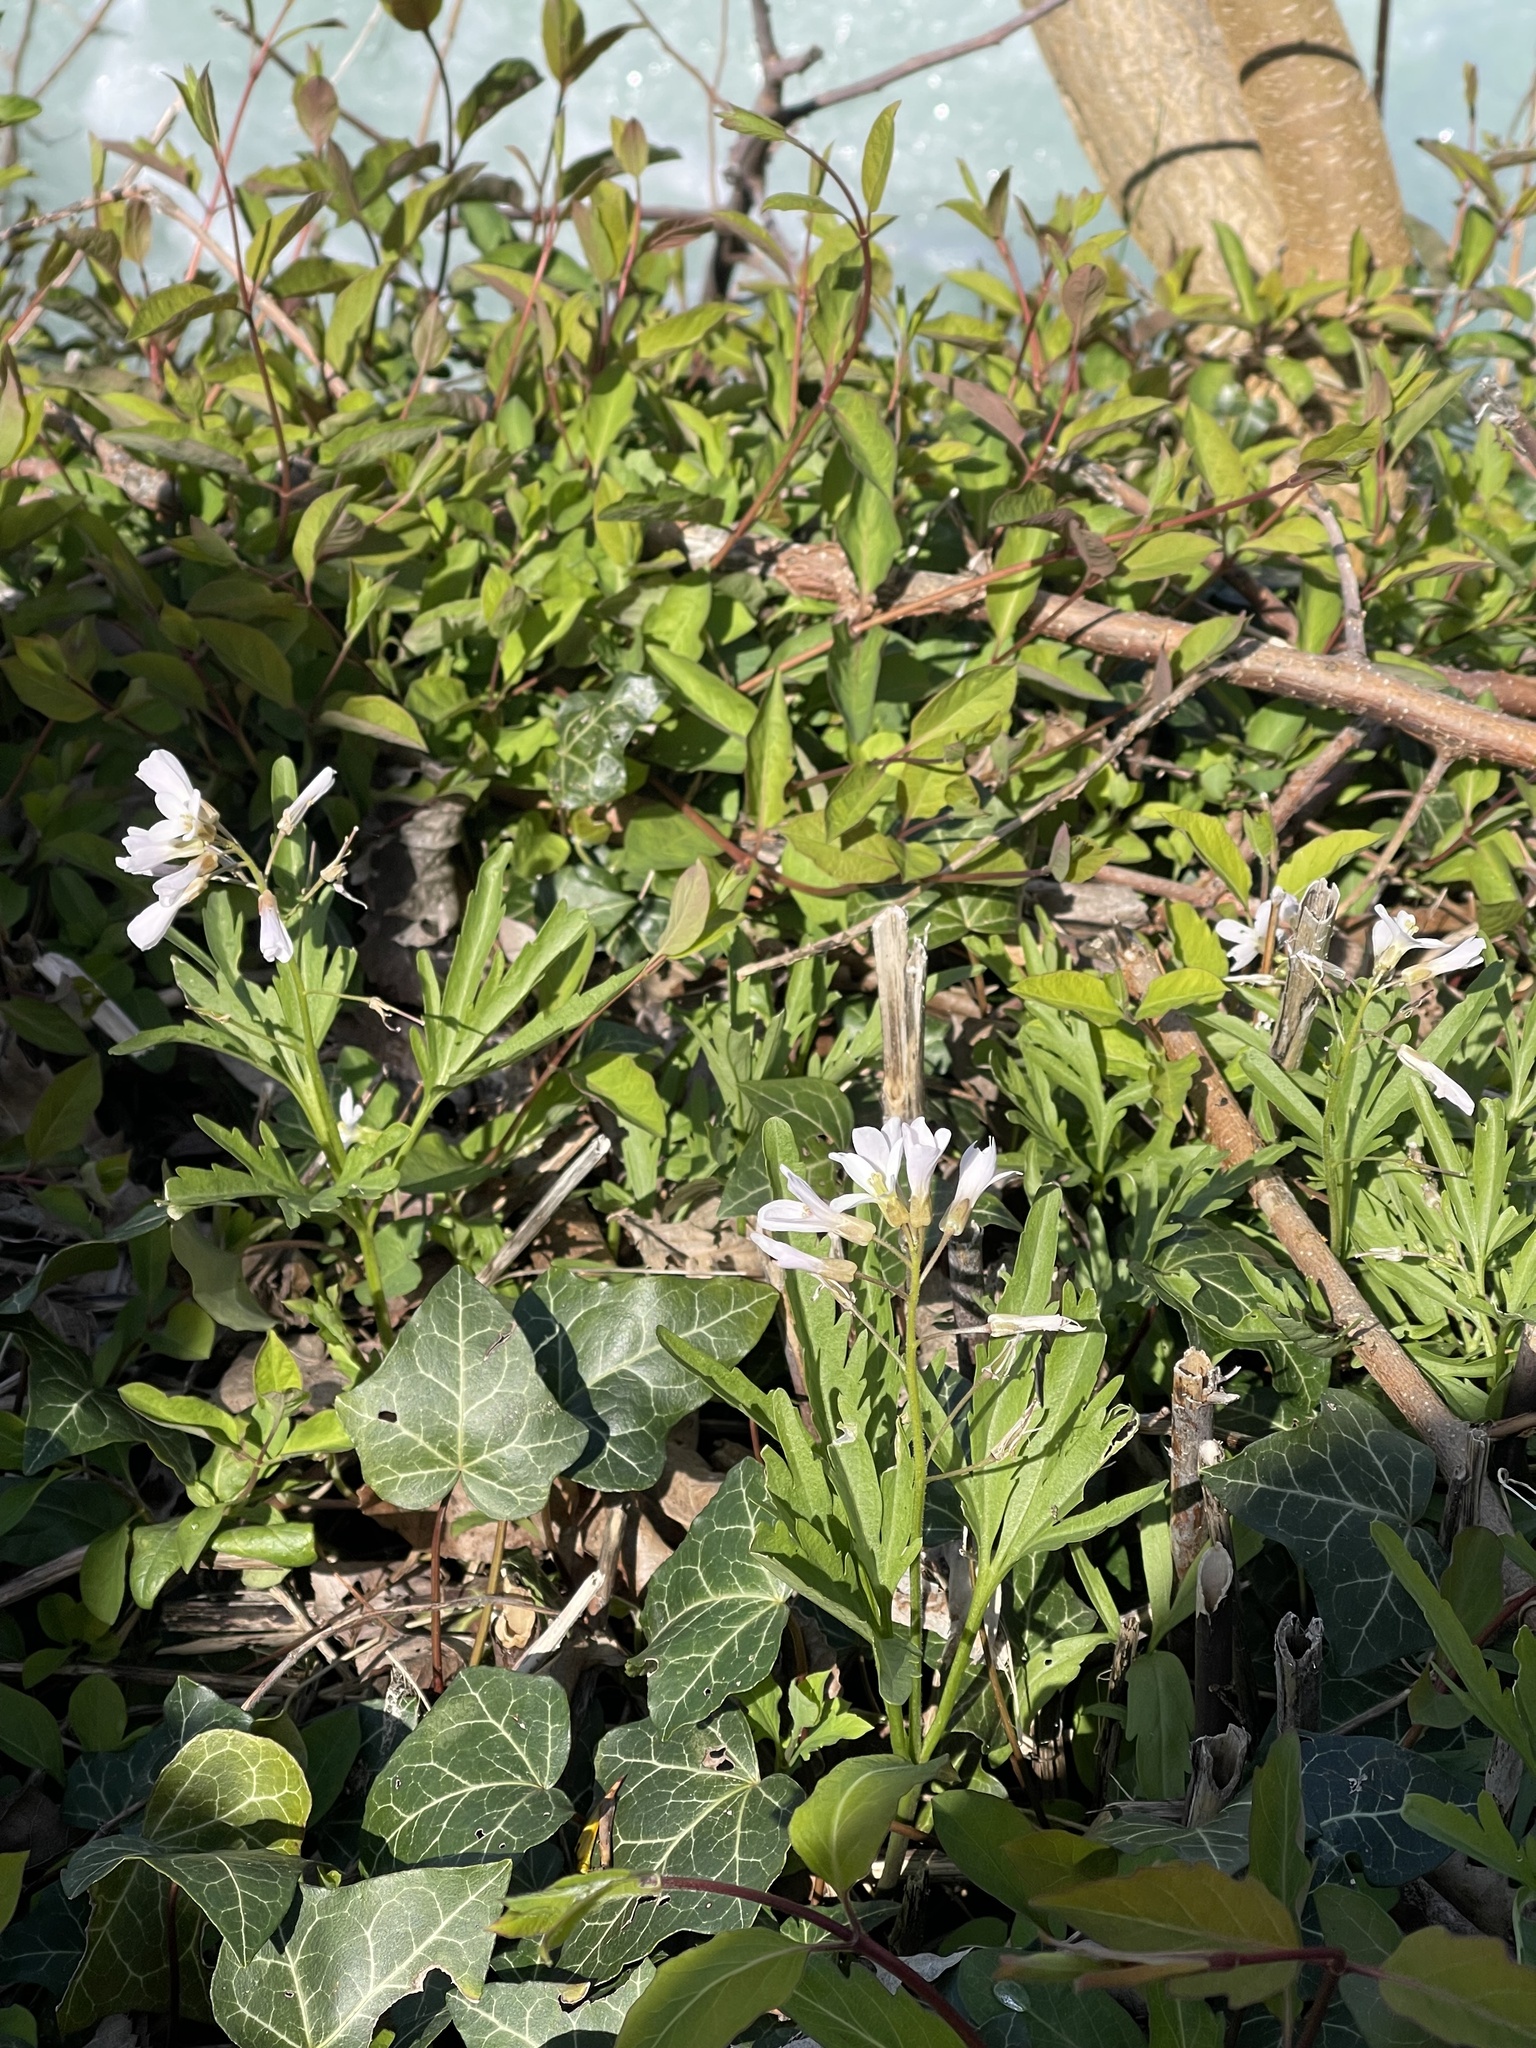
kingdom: Plantae
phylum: Tracheophyta
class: Magnoliopsida
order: Brassicales
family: Brassicaceae
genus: Cardamine
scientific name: Cardamine concatenata
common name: Cut-leaf toothcup
